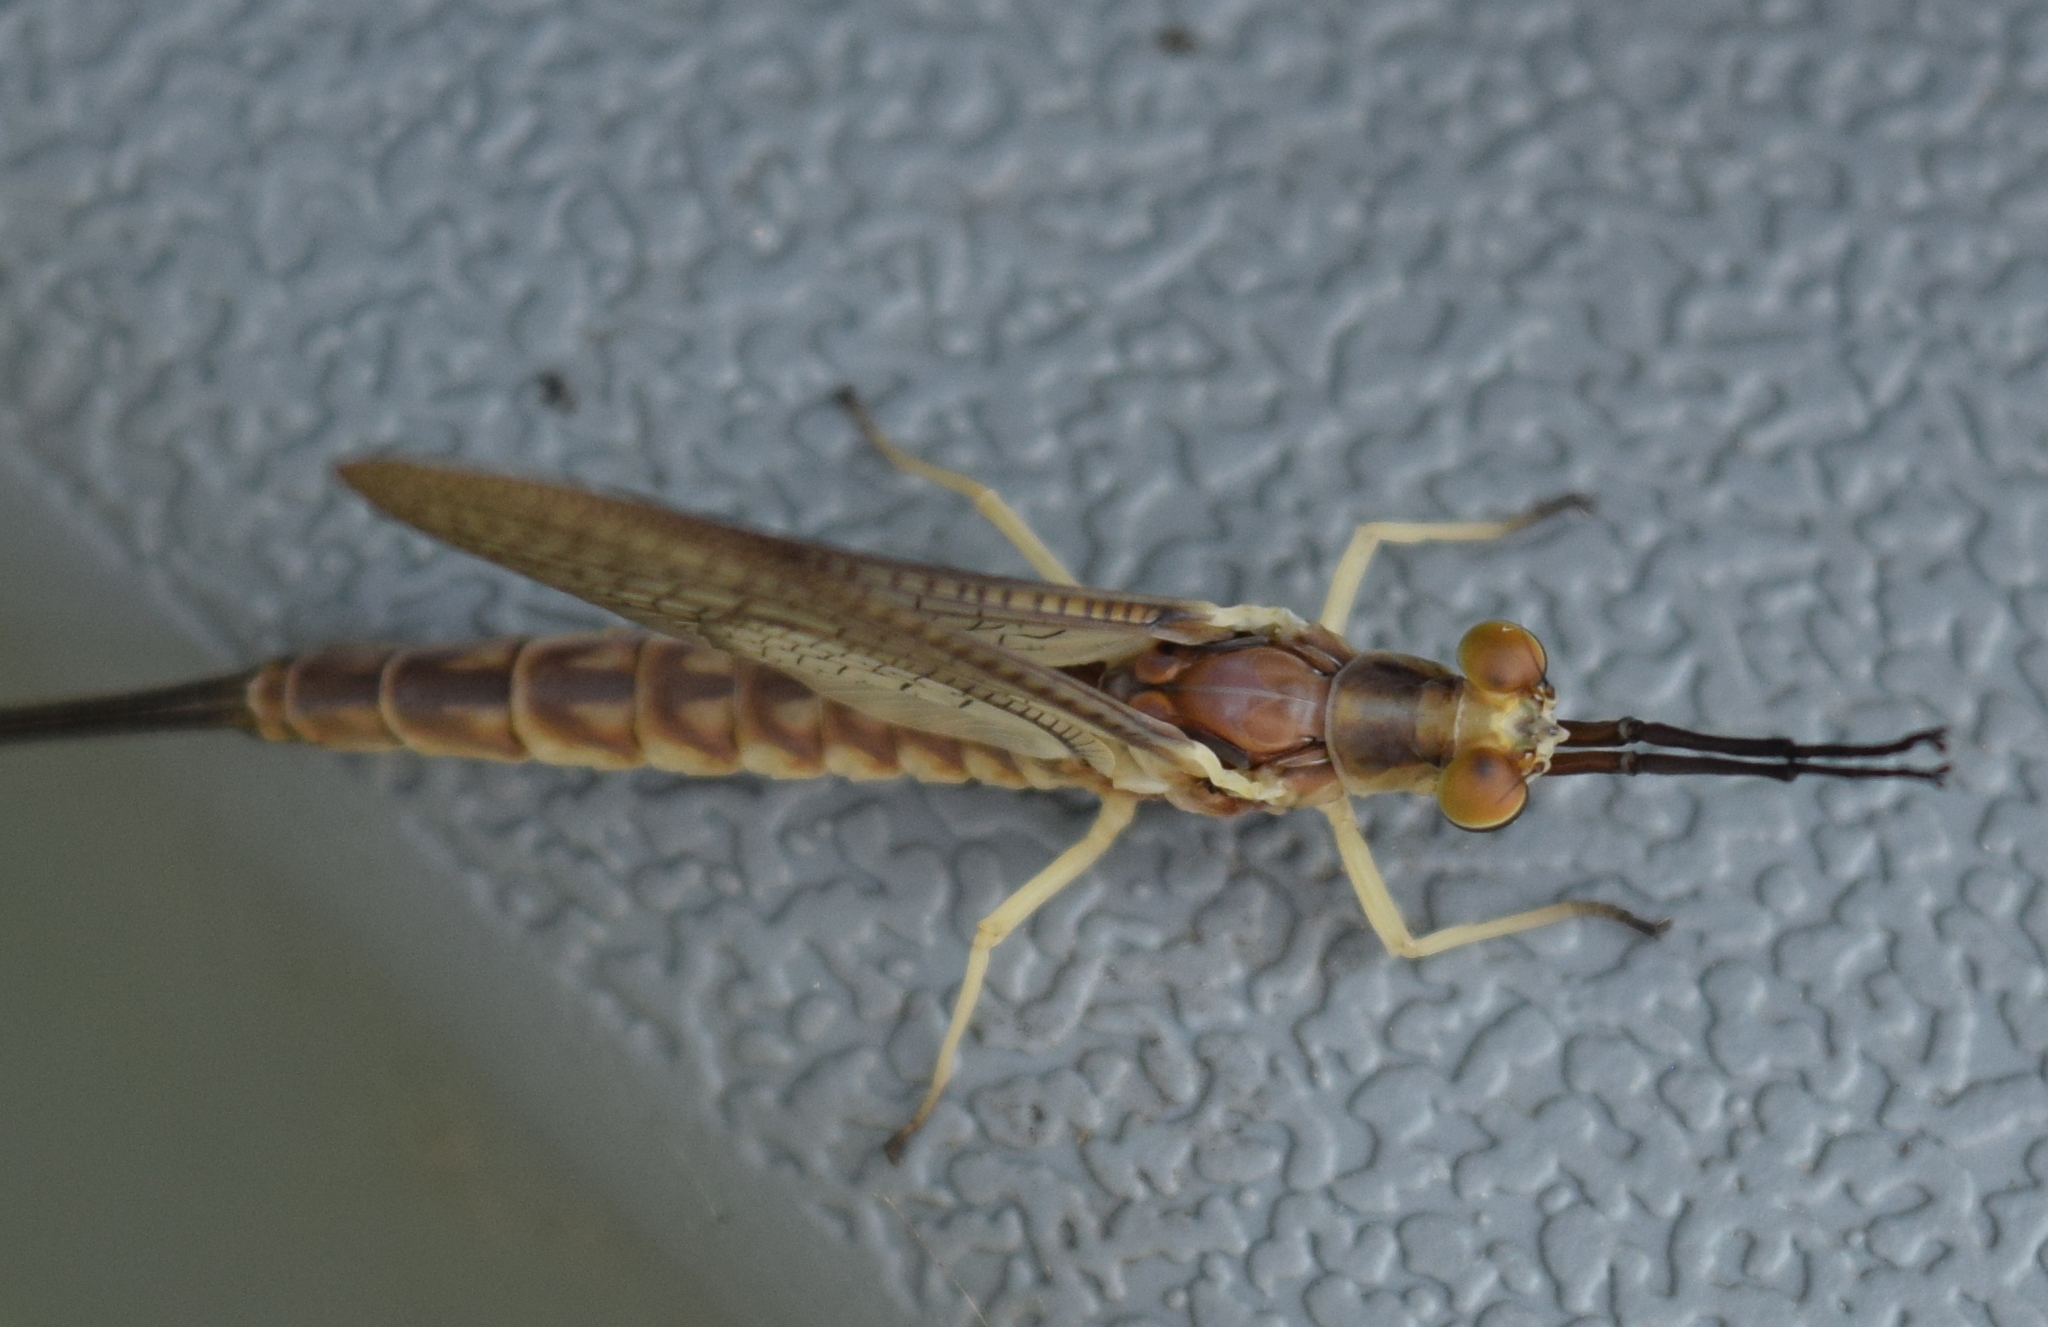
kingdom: Animalia
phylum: Arthropoda
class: Insecta
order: Ephemeroptera
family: Ephemeridae
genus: Hexagenia
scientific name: Hexagenia limbata
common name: Giant mayfly
